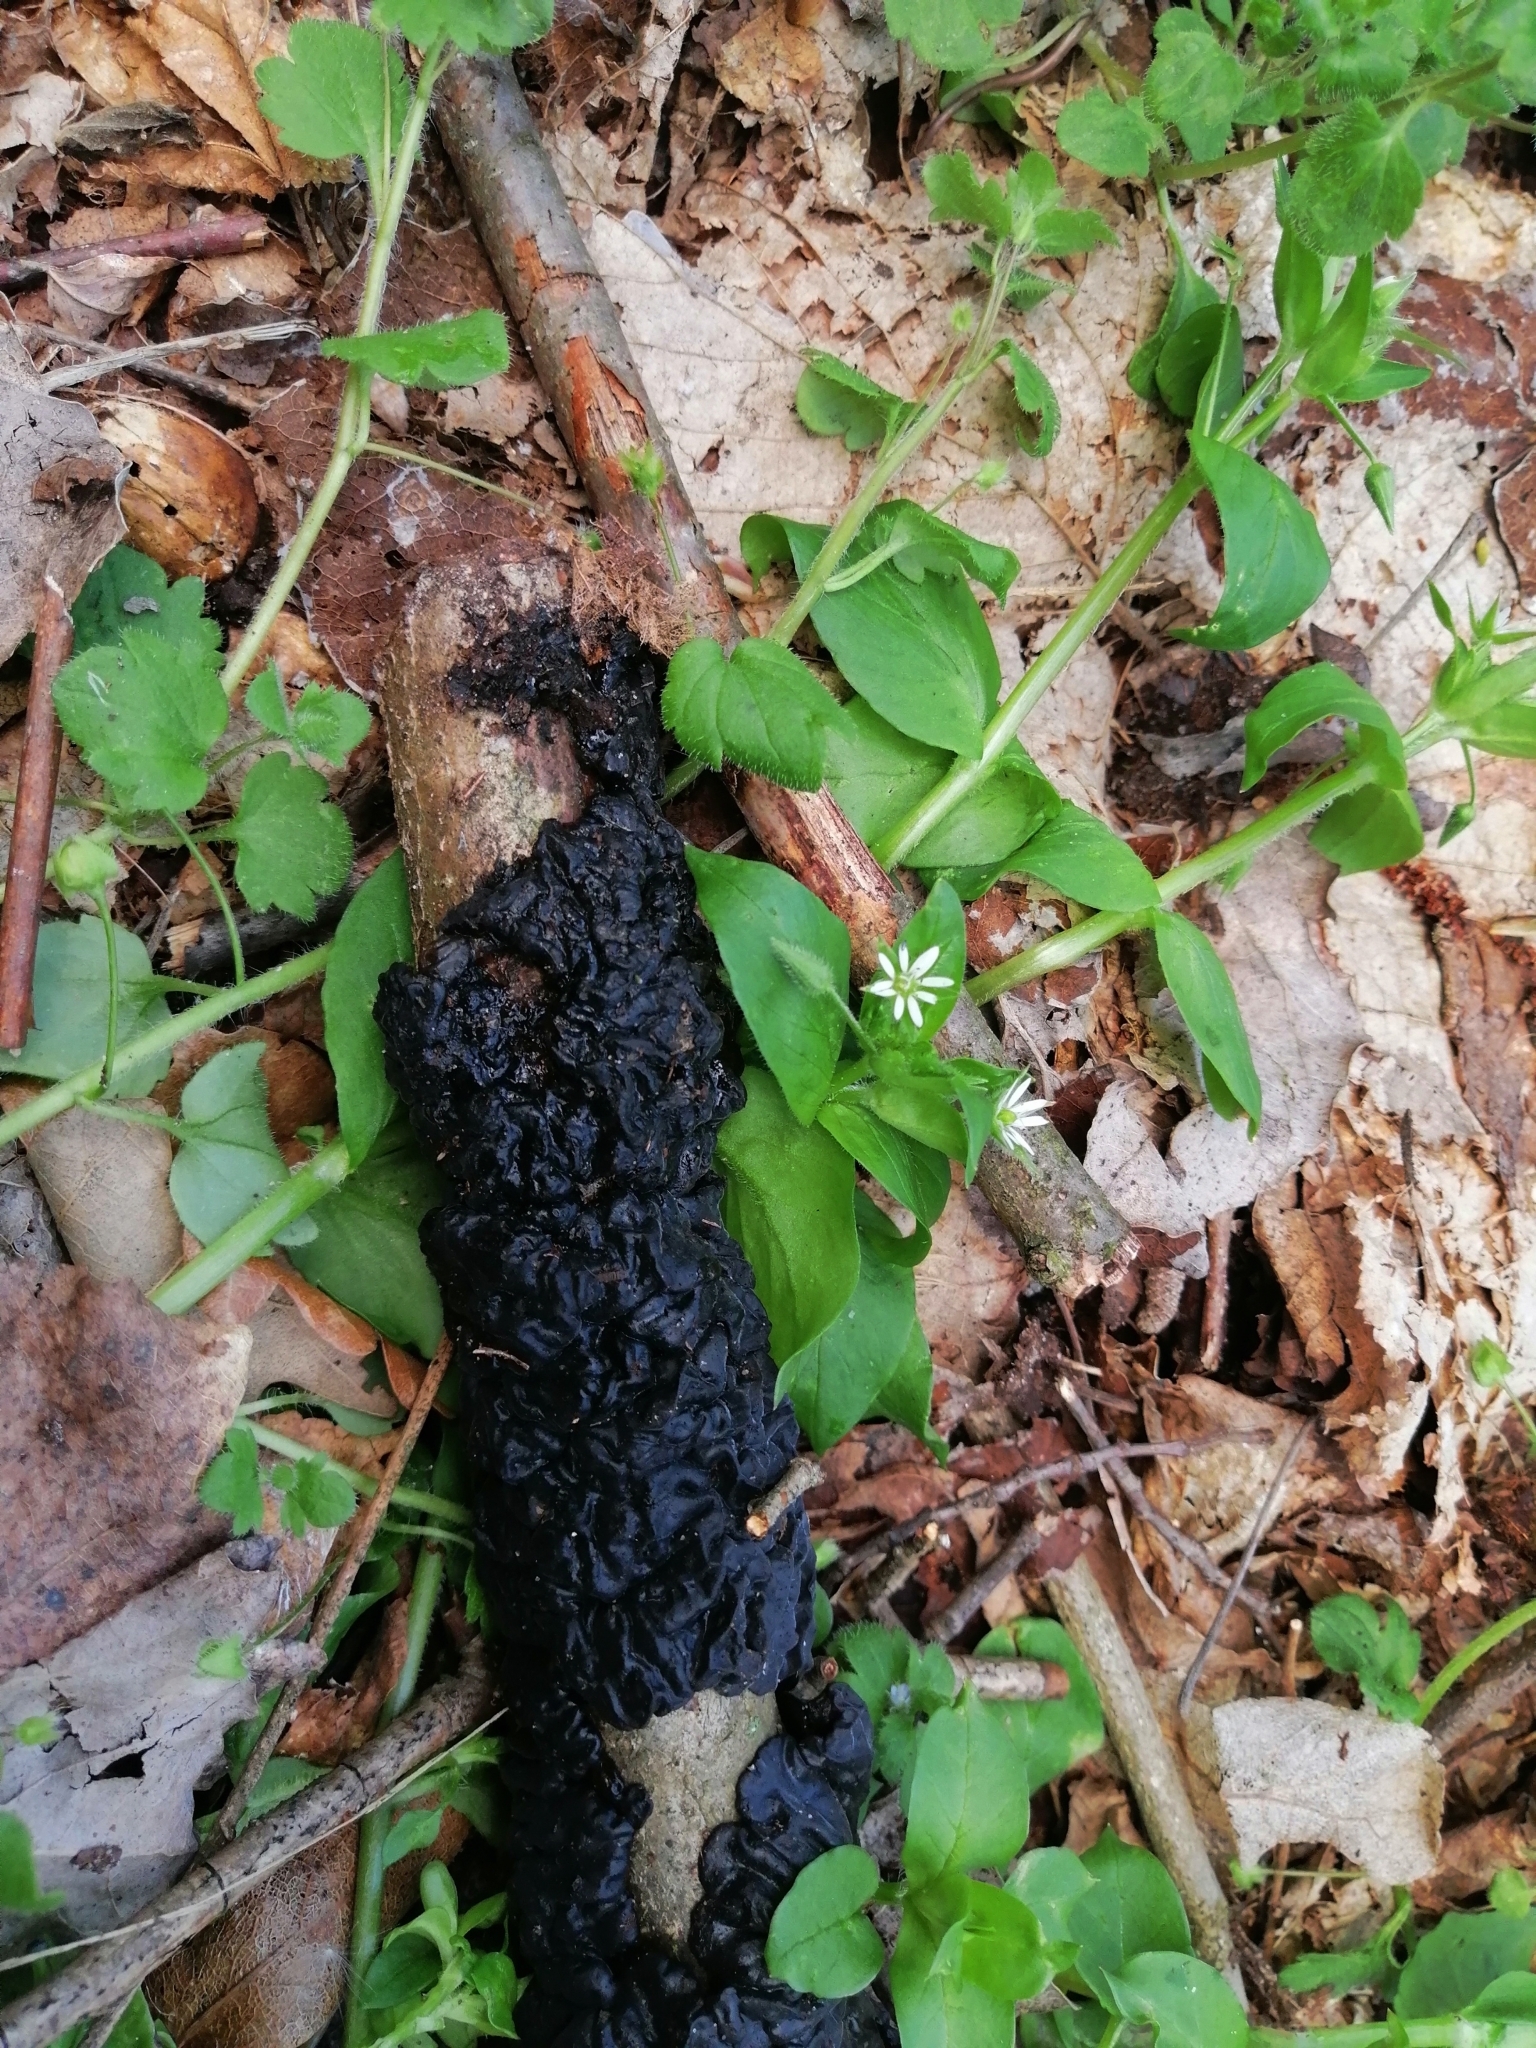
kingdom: Fungi
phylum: Basidiomycota
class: Agaricomycetes
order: Auriculariales
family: Auriculariaceae
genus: Exidia
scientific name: Exidia nigricans
